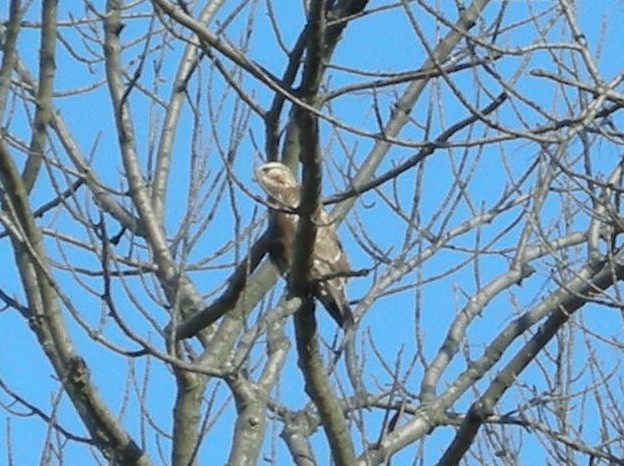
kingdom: Animalia
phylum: Chordata
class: Aves
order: Accipitriformes
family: Accipitridae
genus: Buteo
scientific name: Buteo lagopus
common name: Rough-legged buzzard
